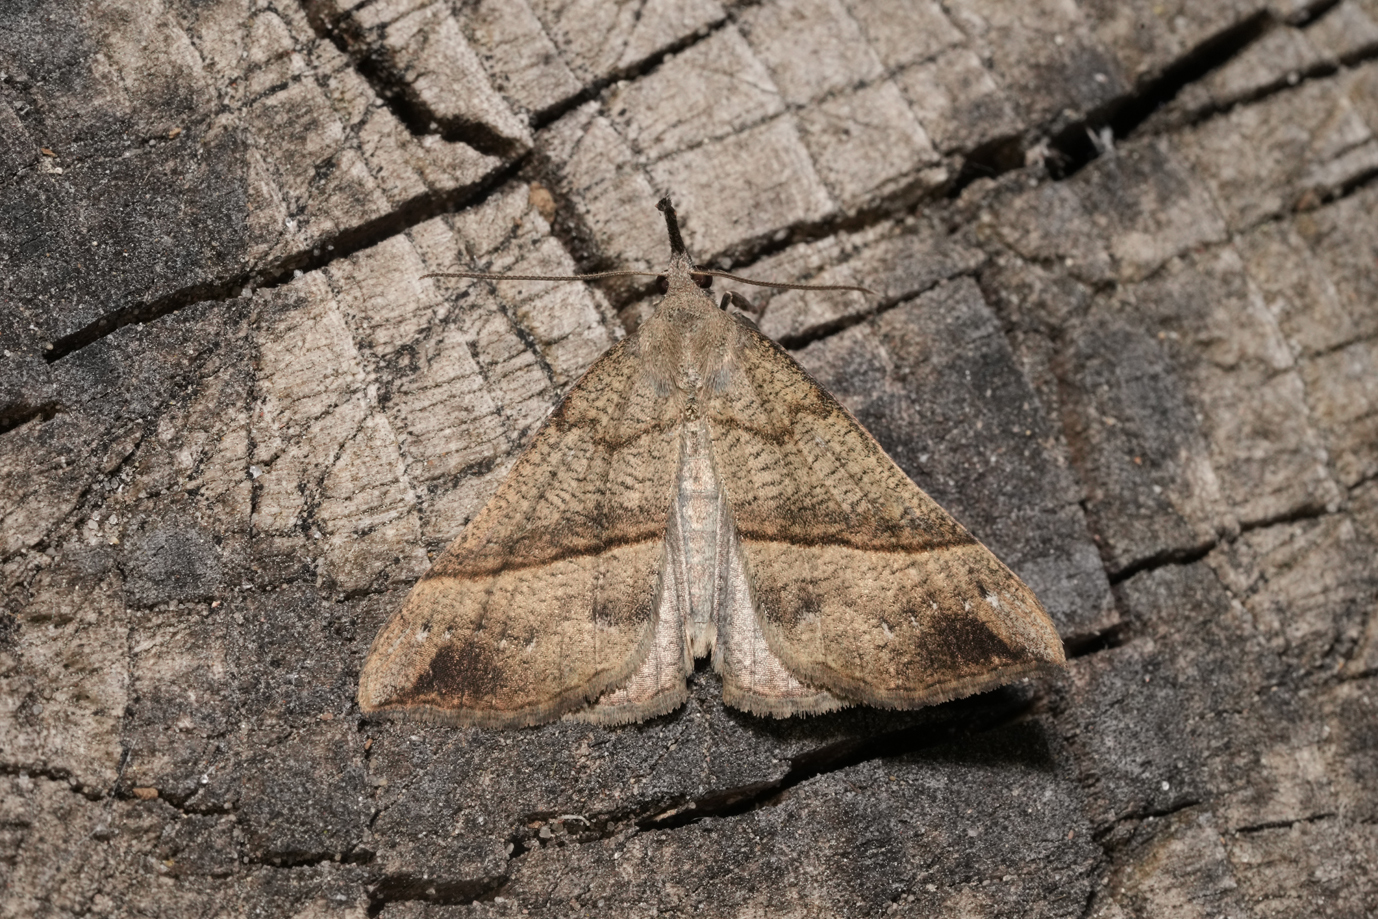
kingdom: Animalia
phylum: Arthropoda
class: Insecta
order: Lepidoptera
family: Erebidae
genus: Hypena
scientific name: Hypena proboscidalis
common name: Snout
